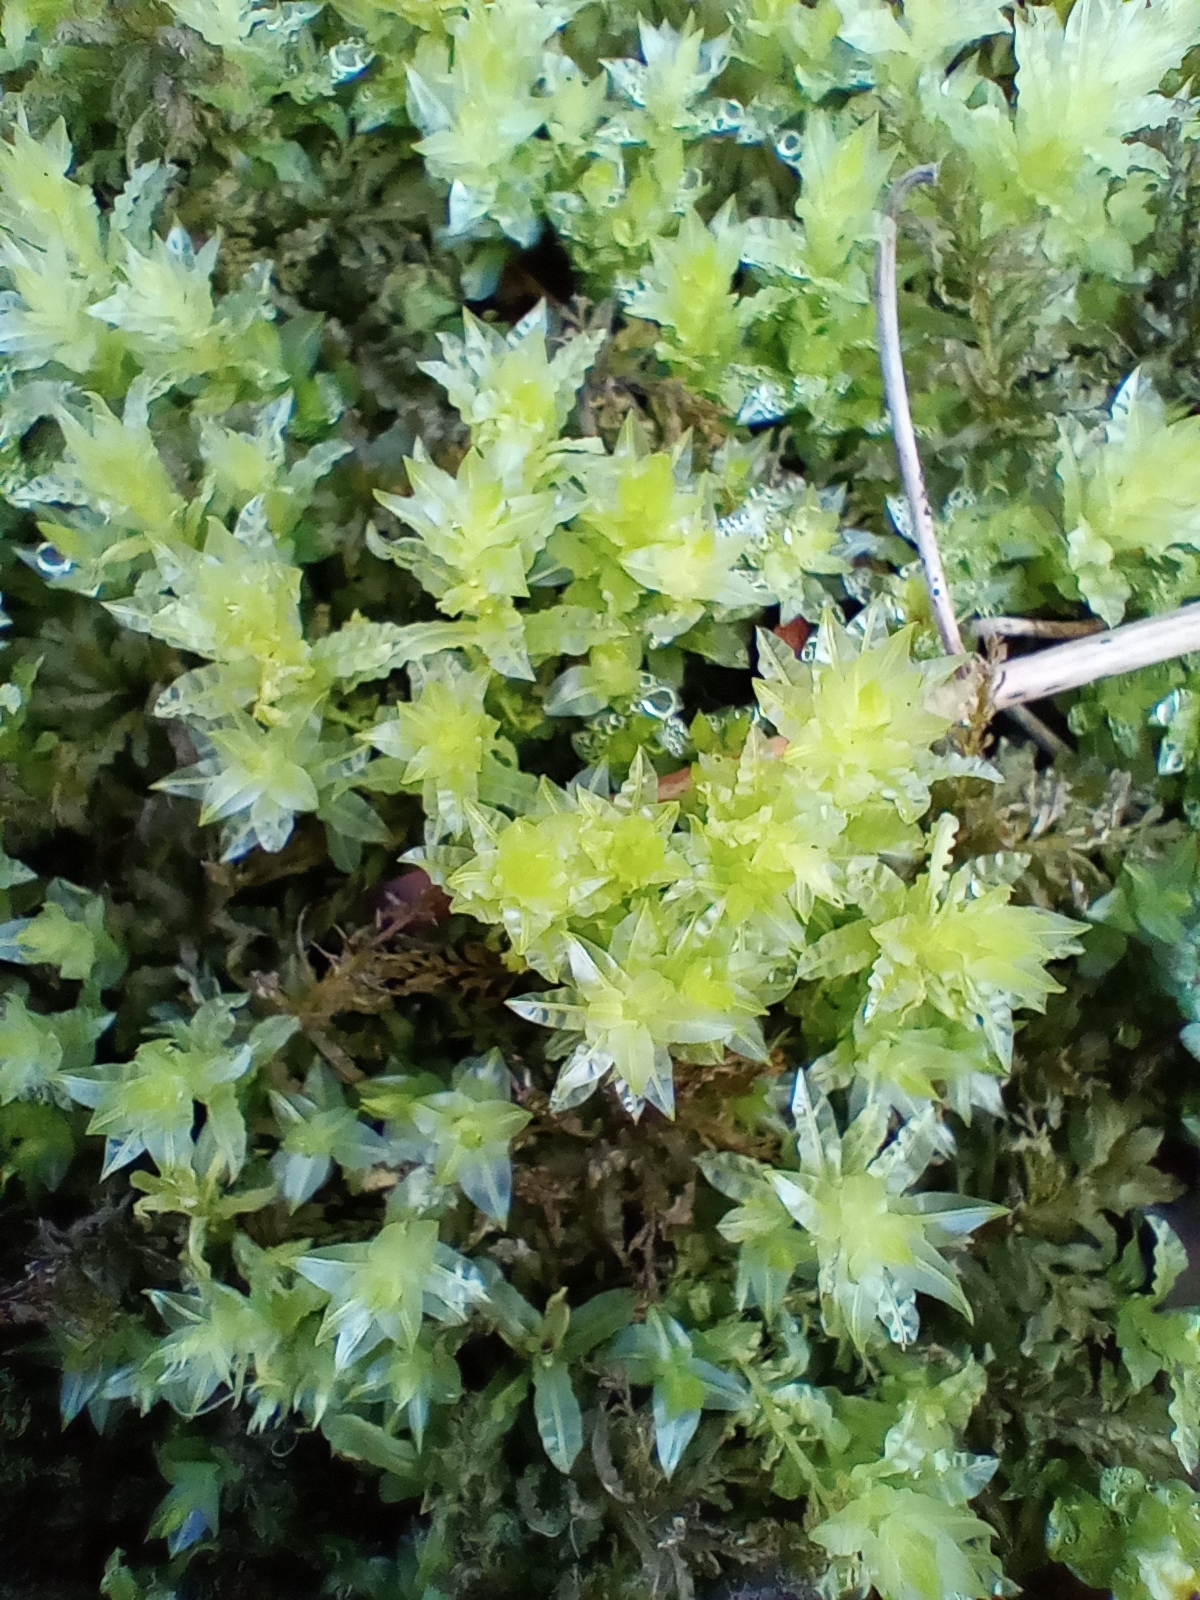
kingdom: Plantae
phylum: Bryophyta
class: Bryopsida
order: Bryales
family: Mniaceae
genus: Plagiomnium
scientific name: Plagiomnium undulatum
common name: Hart's-tongue thyme-moss
